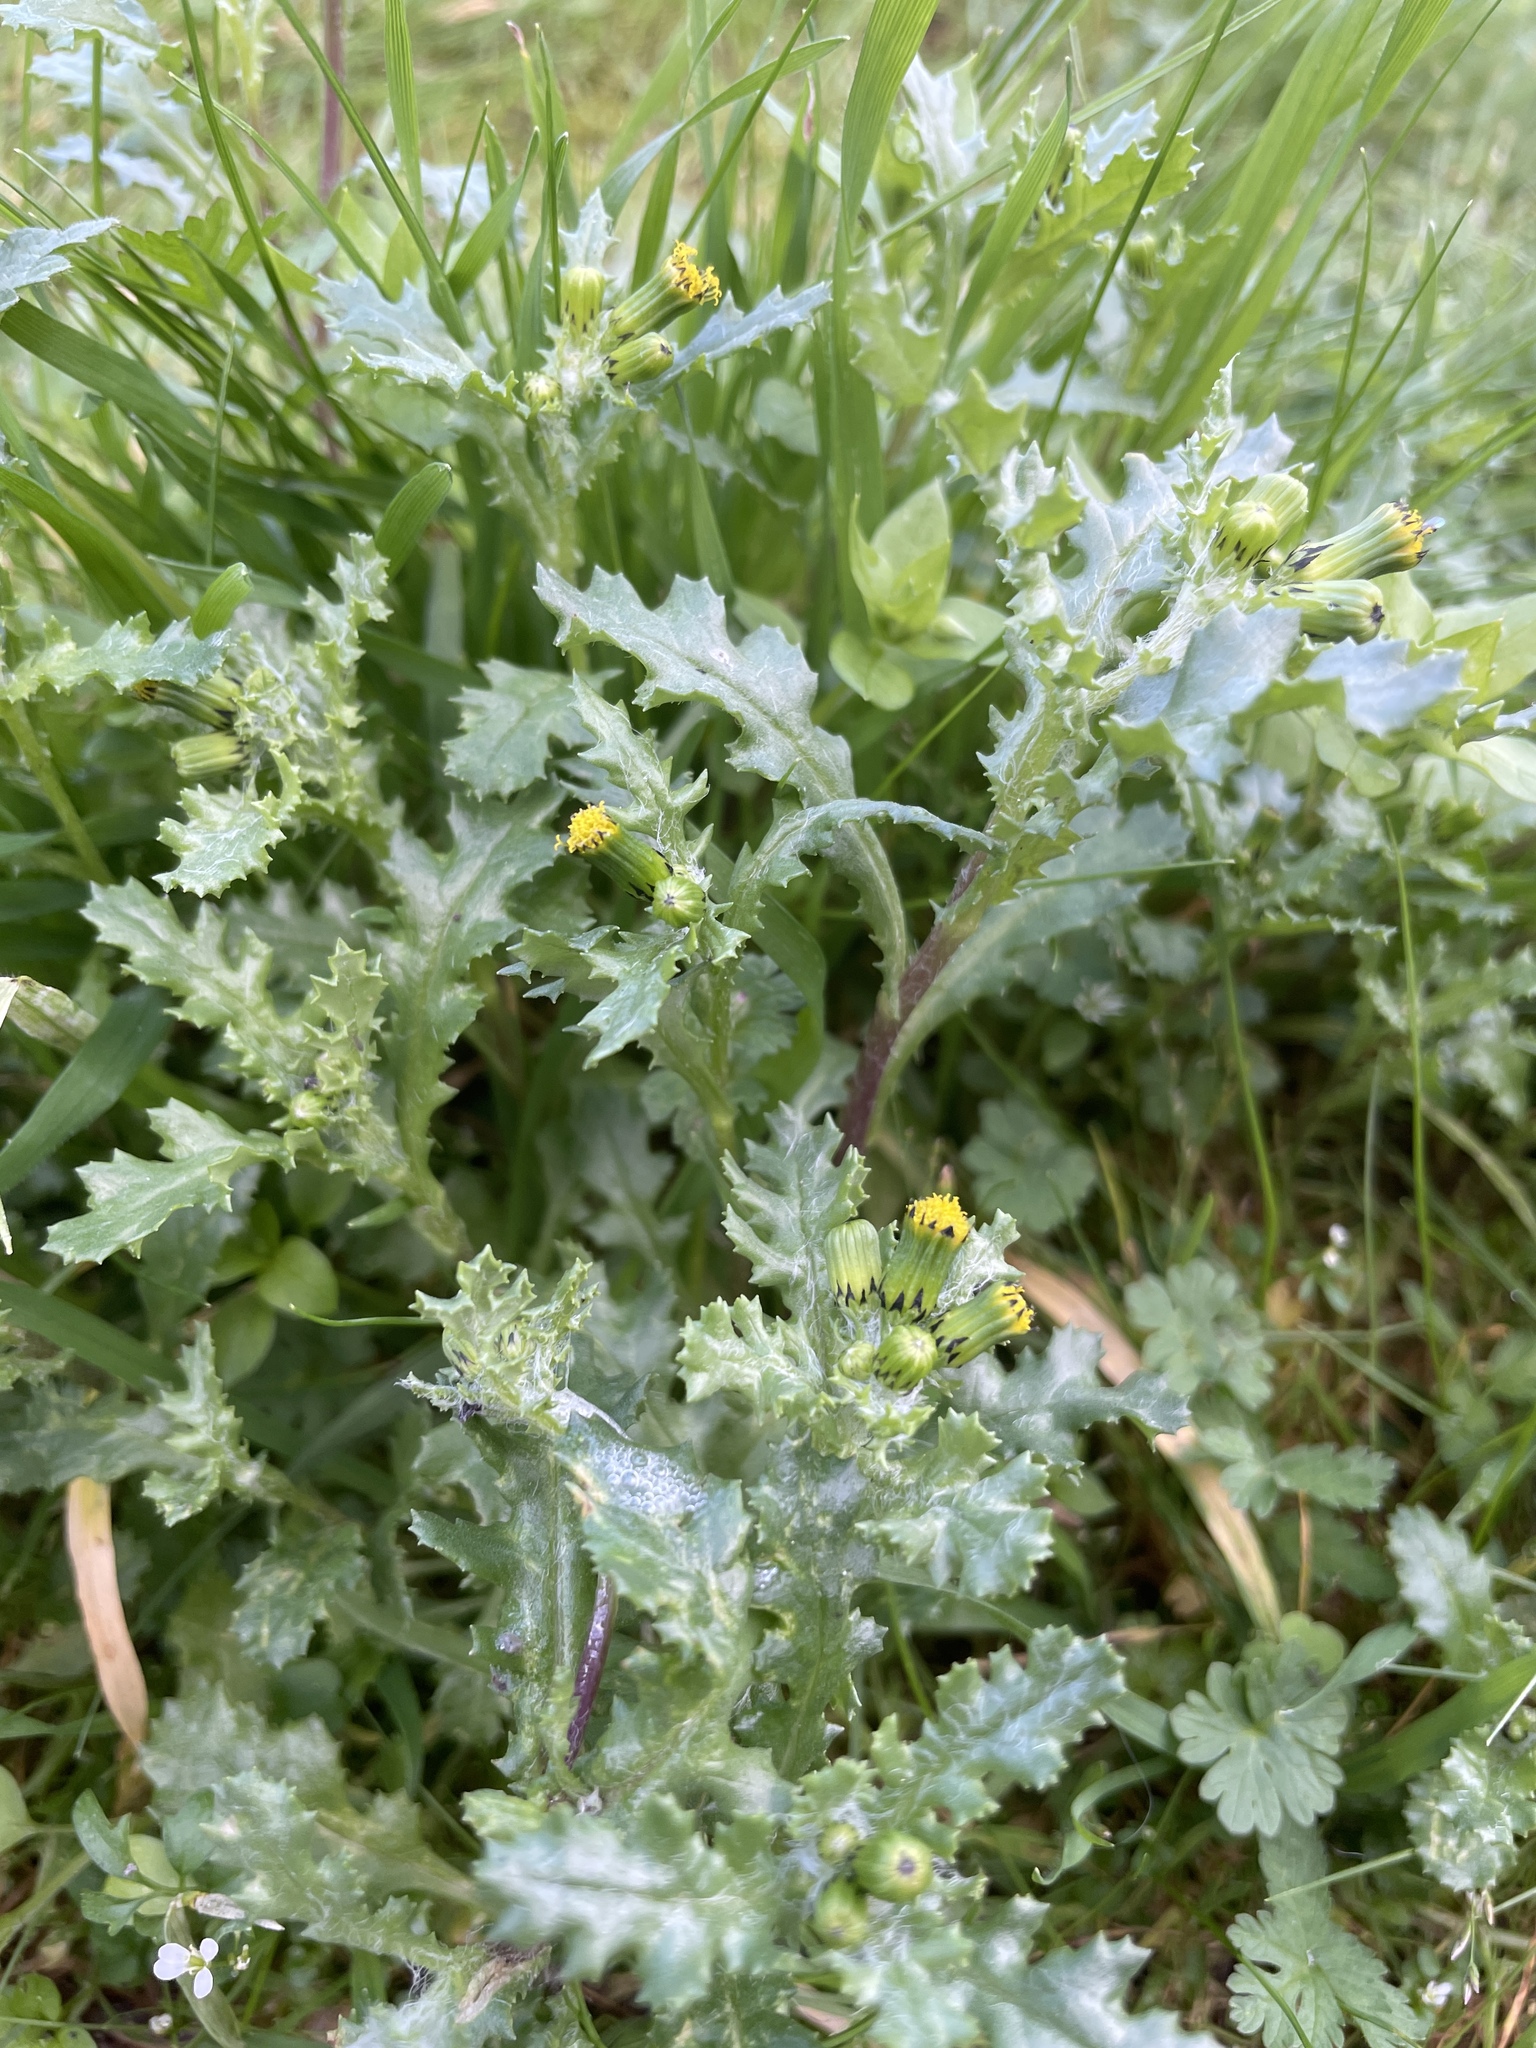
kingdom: Plantae
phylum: Tracheophyta
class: Magnoliopsida
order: Asterales
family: Asteraceae
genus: Senecio
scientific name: Senecio vulgaris
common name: Old-man-in-the-spring
